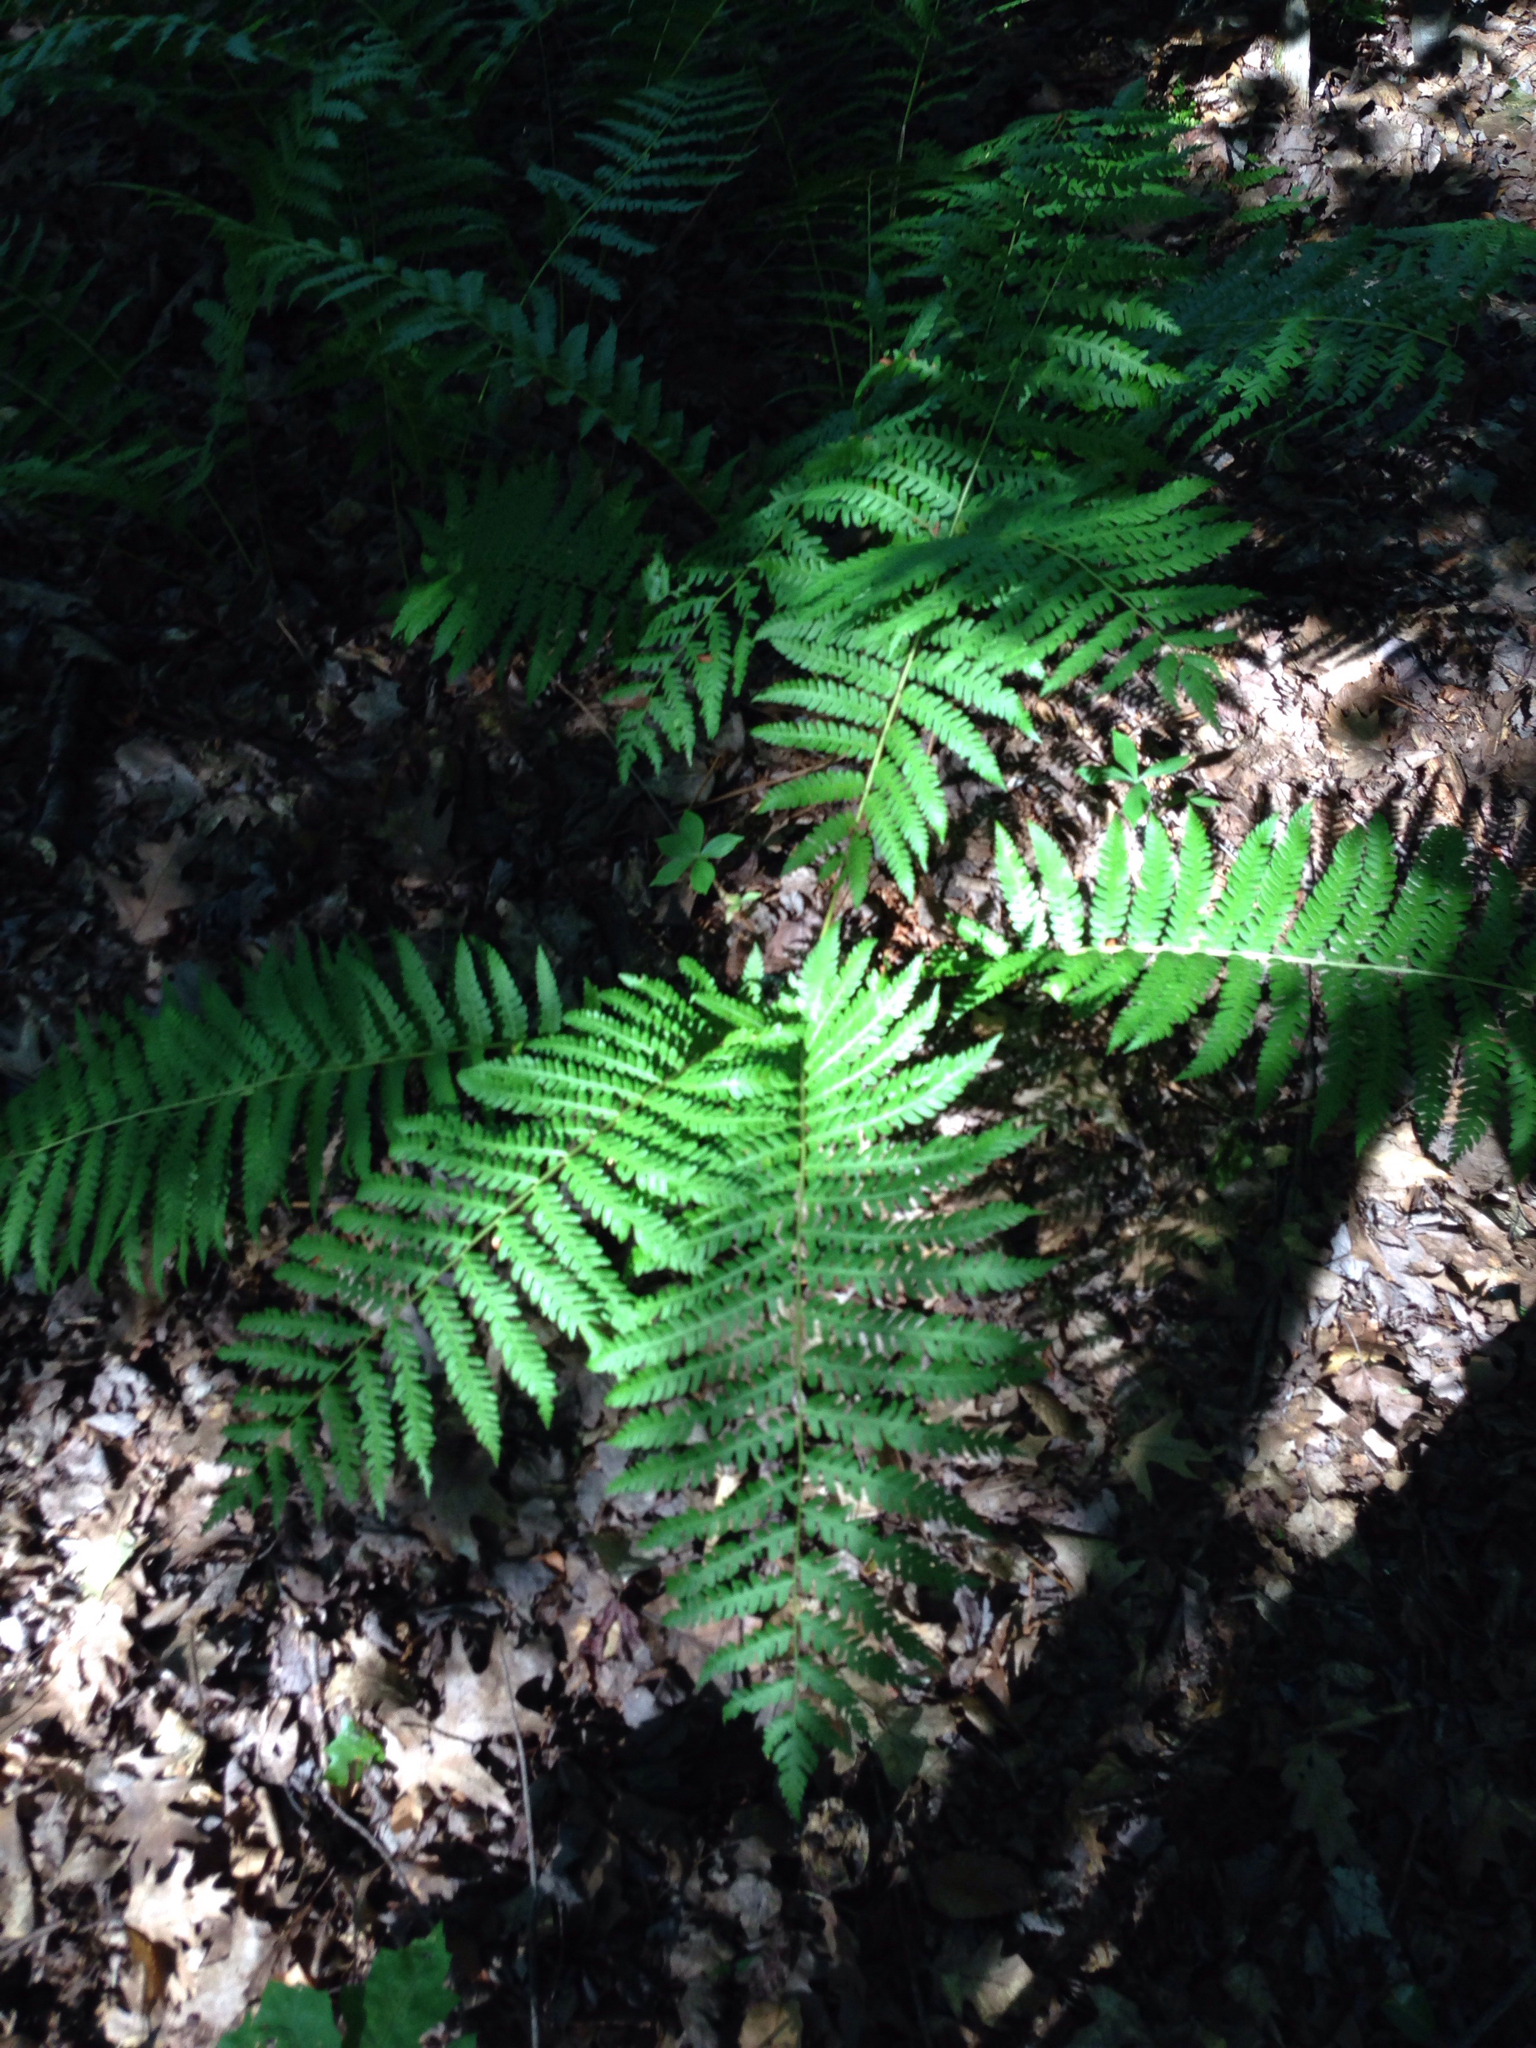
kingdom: Plantae
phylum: Tracheophyta
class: Polypodiopsida
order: Osmundales
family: Osmundaceae
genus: Osmundastrum
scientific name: Osmundastrum cinnamomeum
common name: Cinnamon fern
